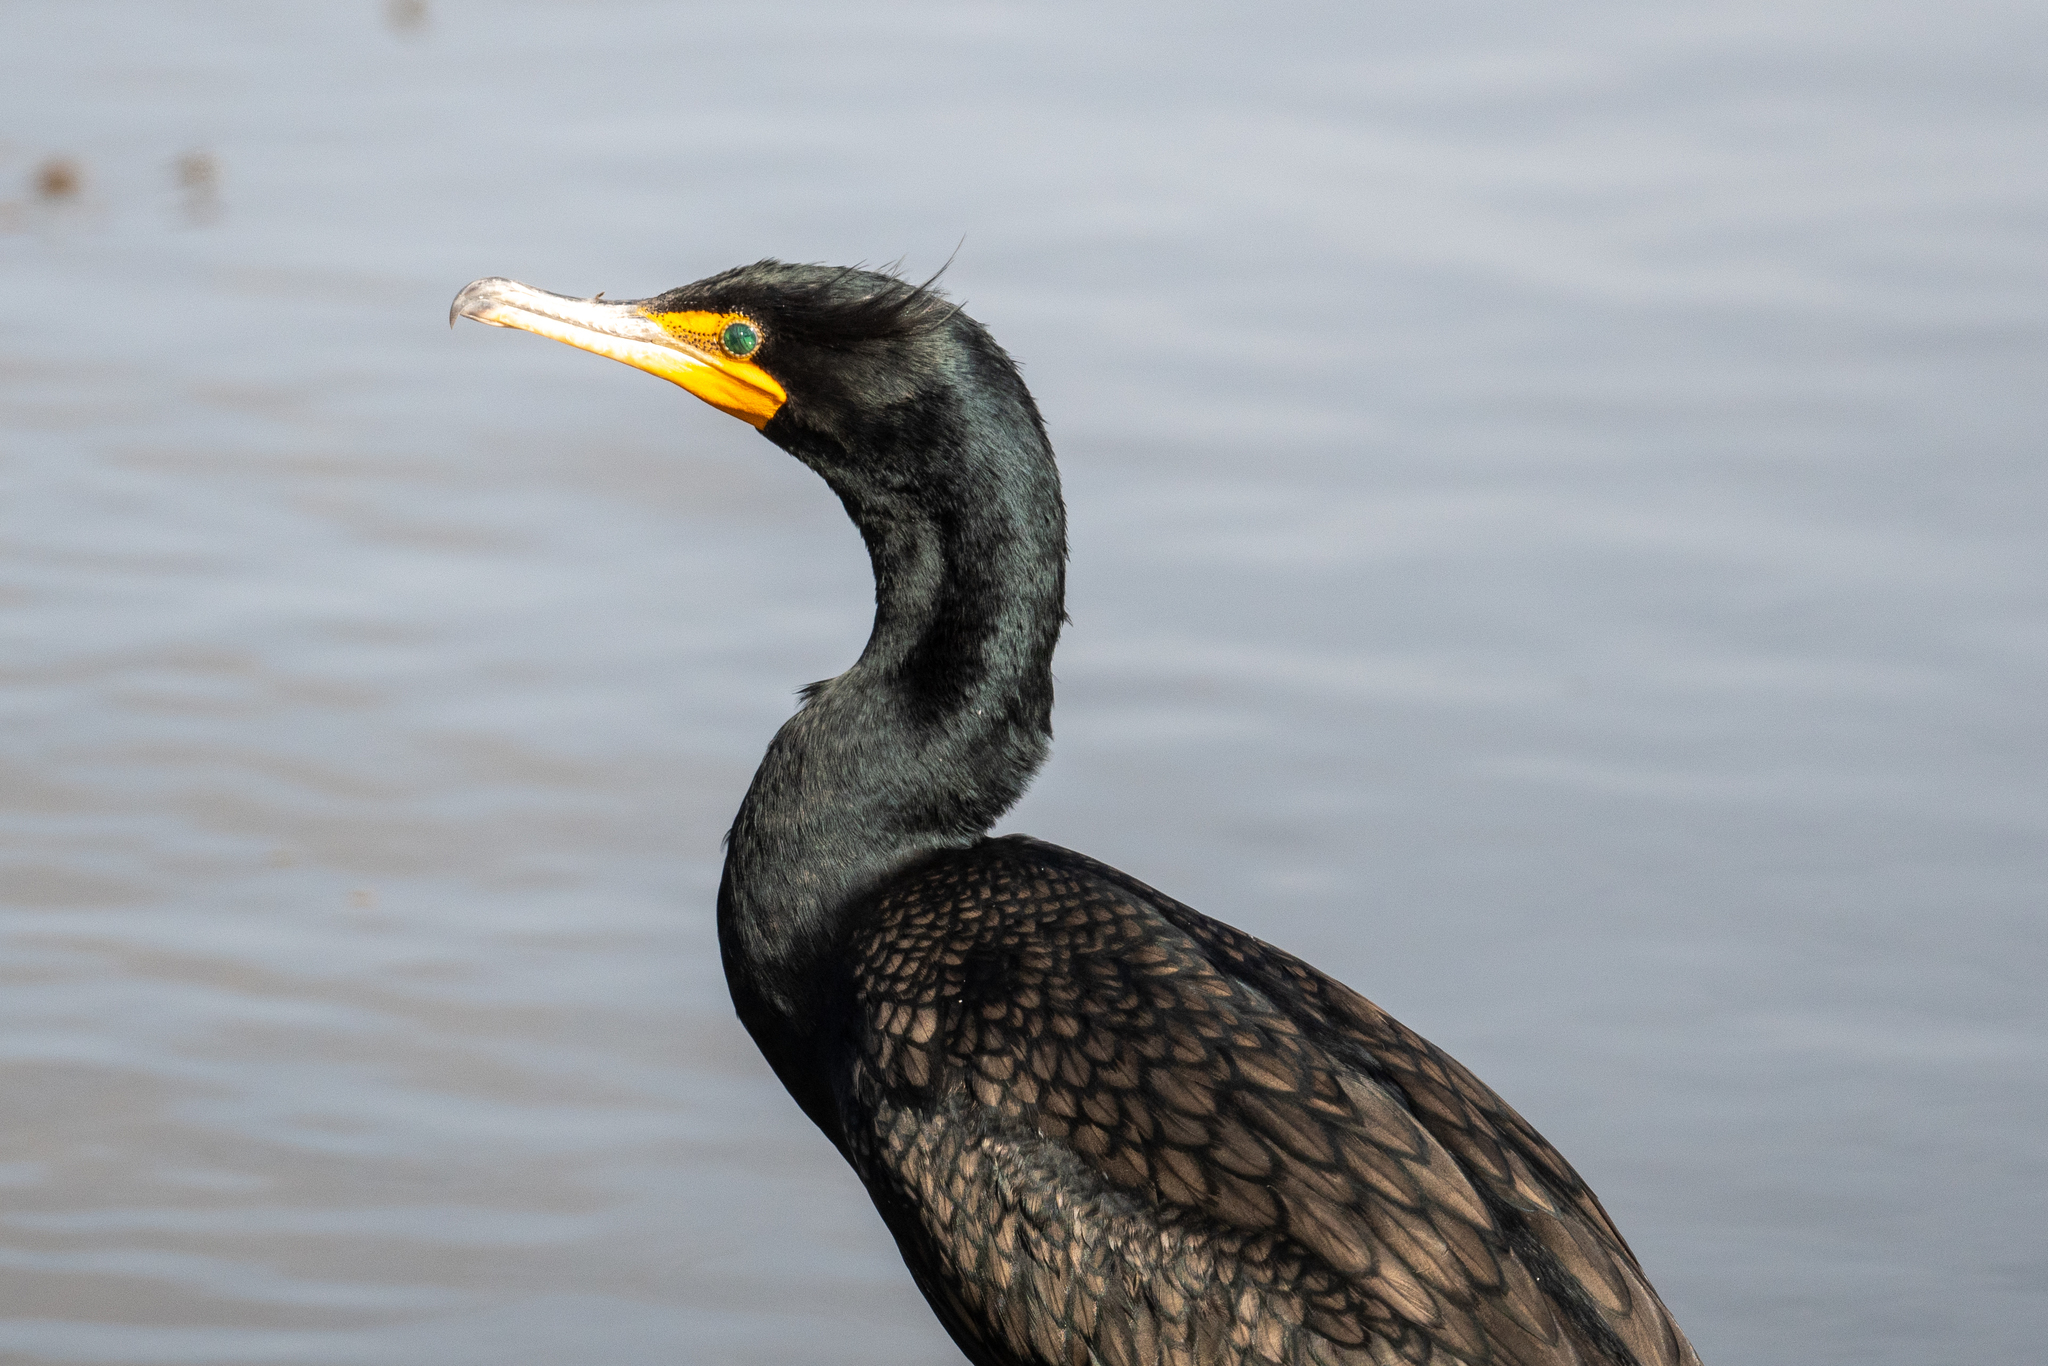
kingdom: Animalia
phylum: Chordata
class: Aves
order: Suliformes
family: Phalacrocoracidae
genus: Phalacrocorax
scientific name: Phalacrocorax auritus
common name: Double-crested cormorant
